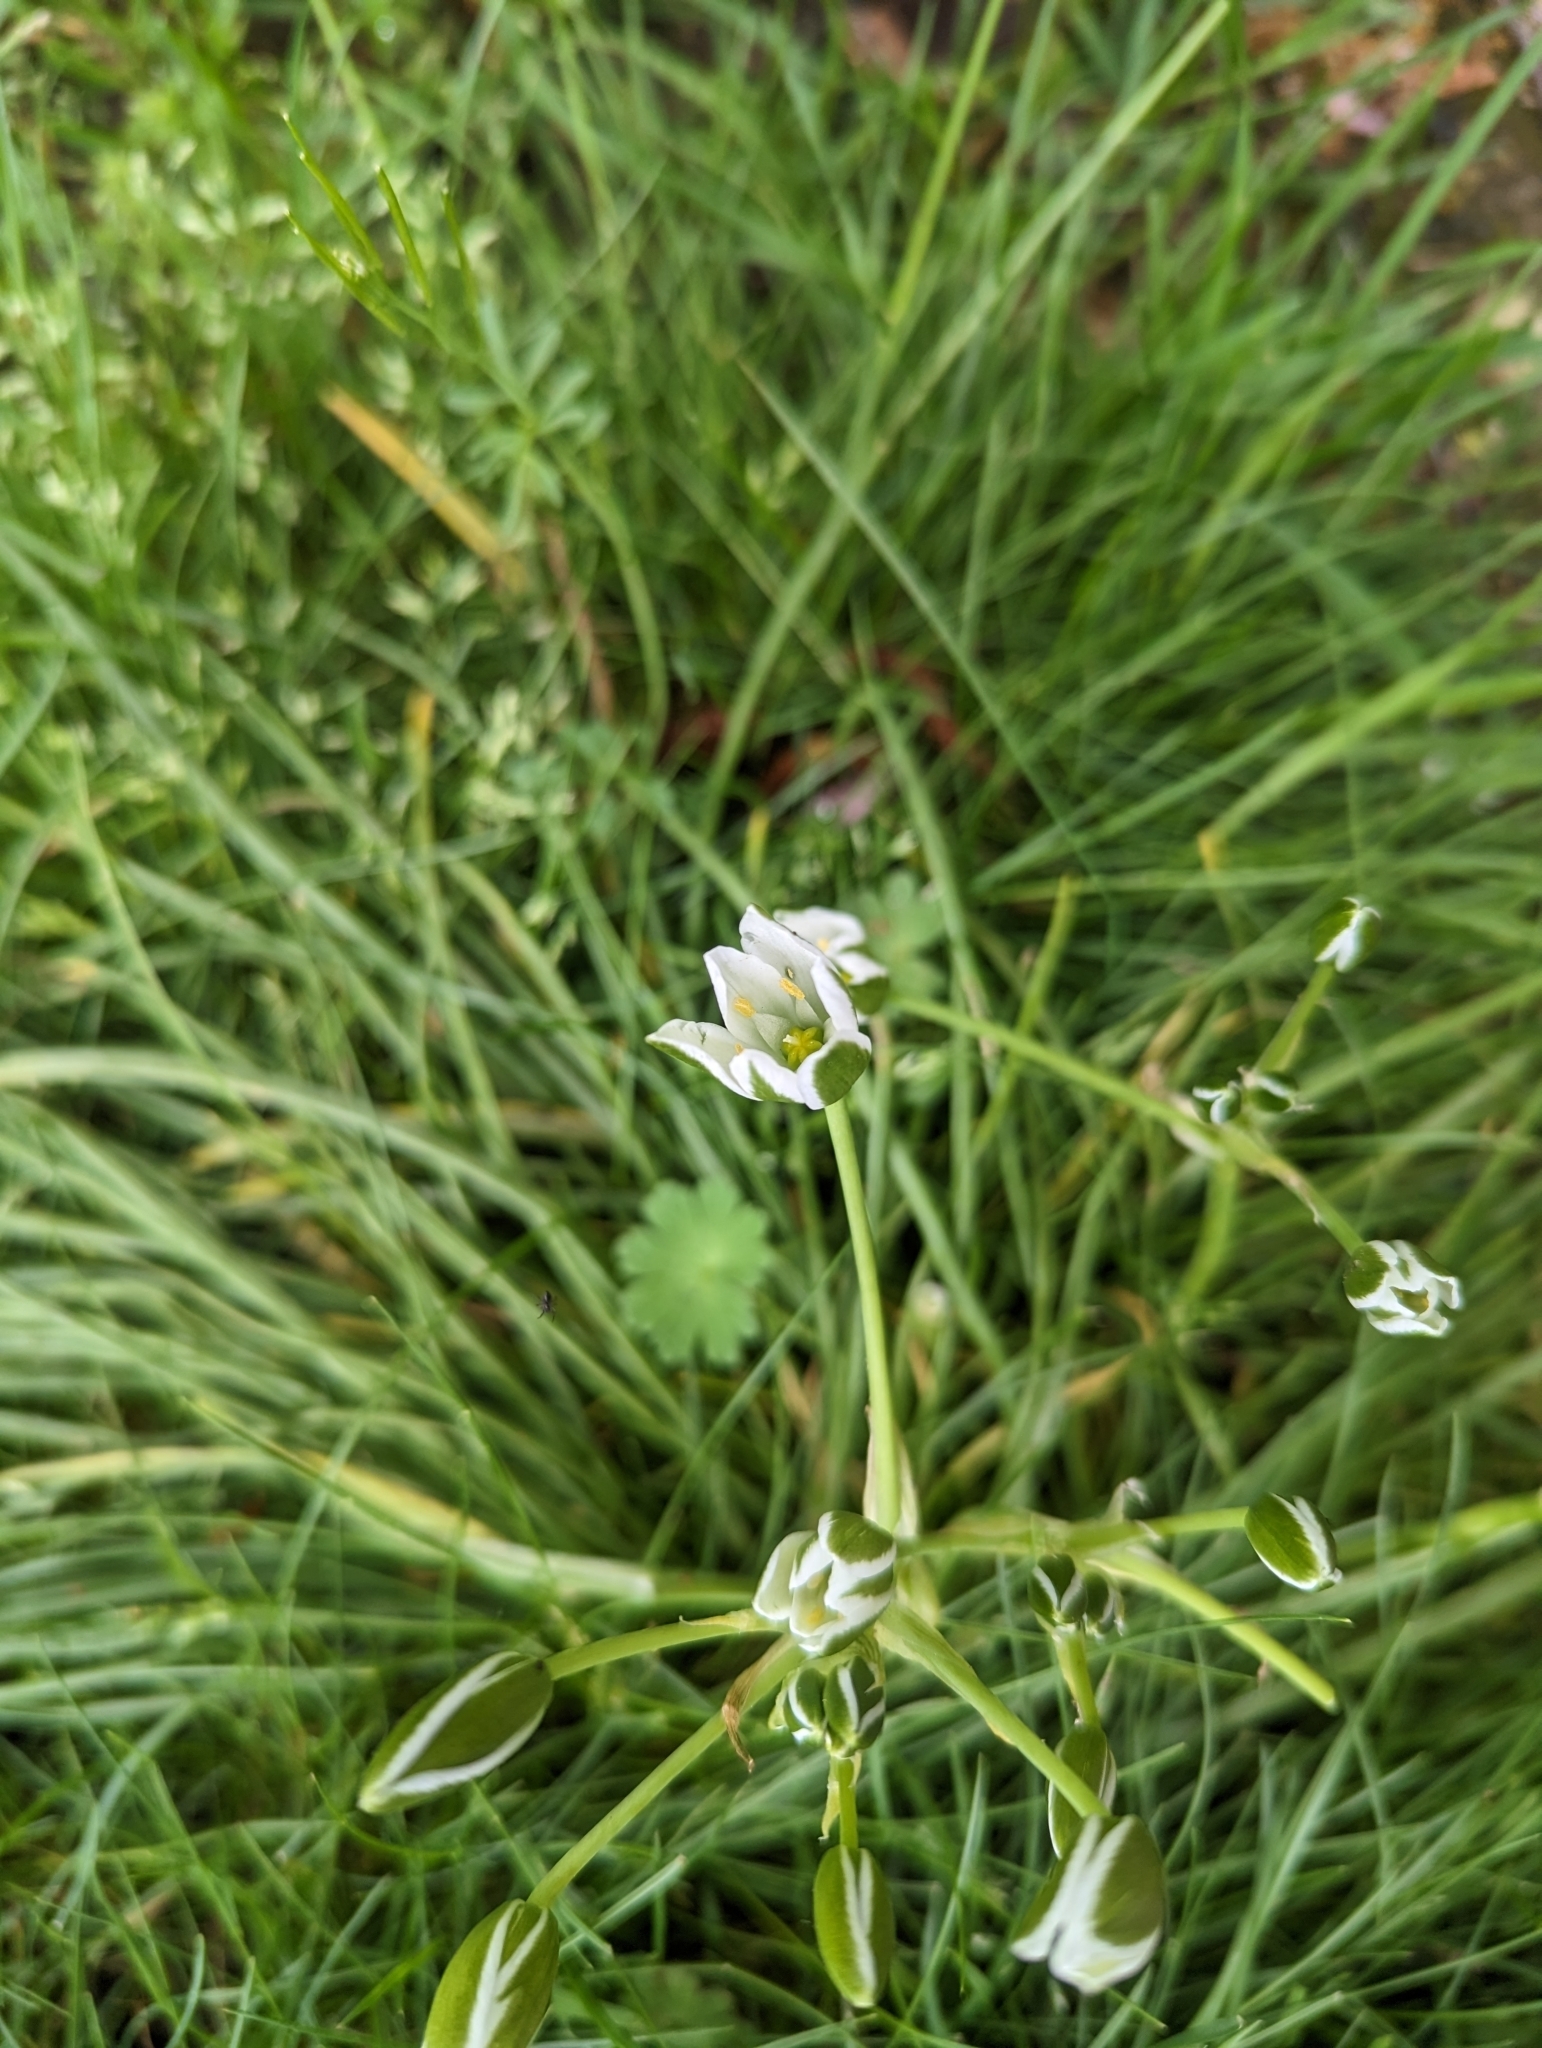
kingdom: Plantae
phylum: Tracheophyta
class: Liliopsida
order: Asparagales
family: Asparagaceae
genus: Ornithogalum
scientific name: Ornithogalum umbellatum
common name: Garden star-of-bethlehem
